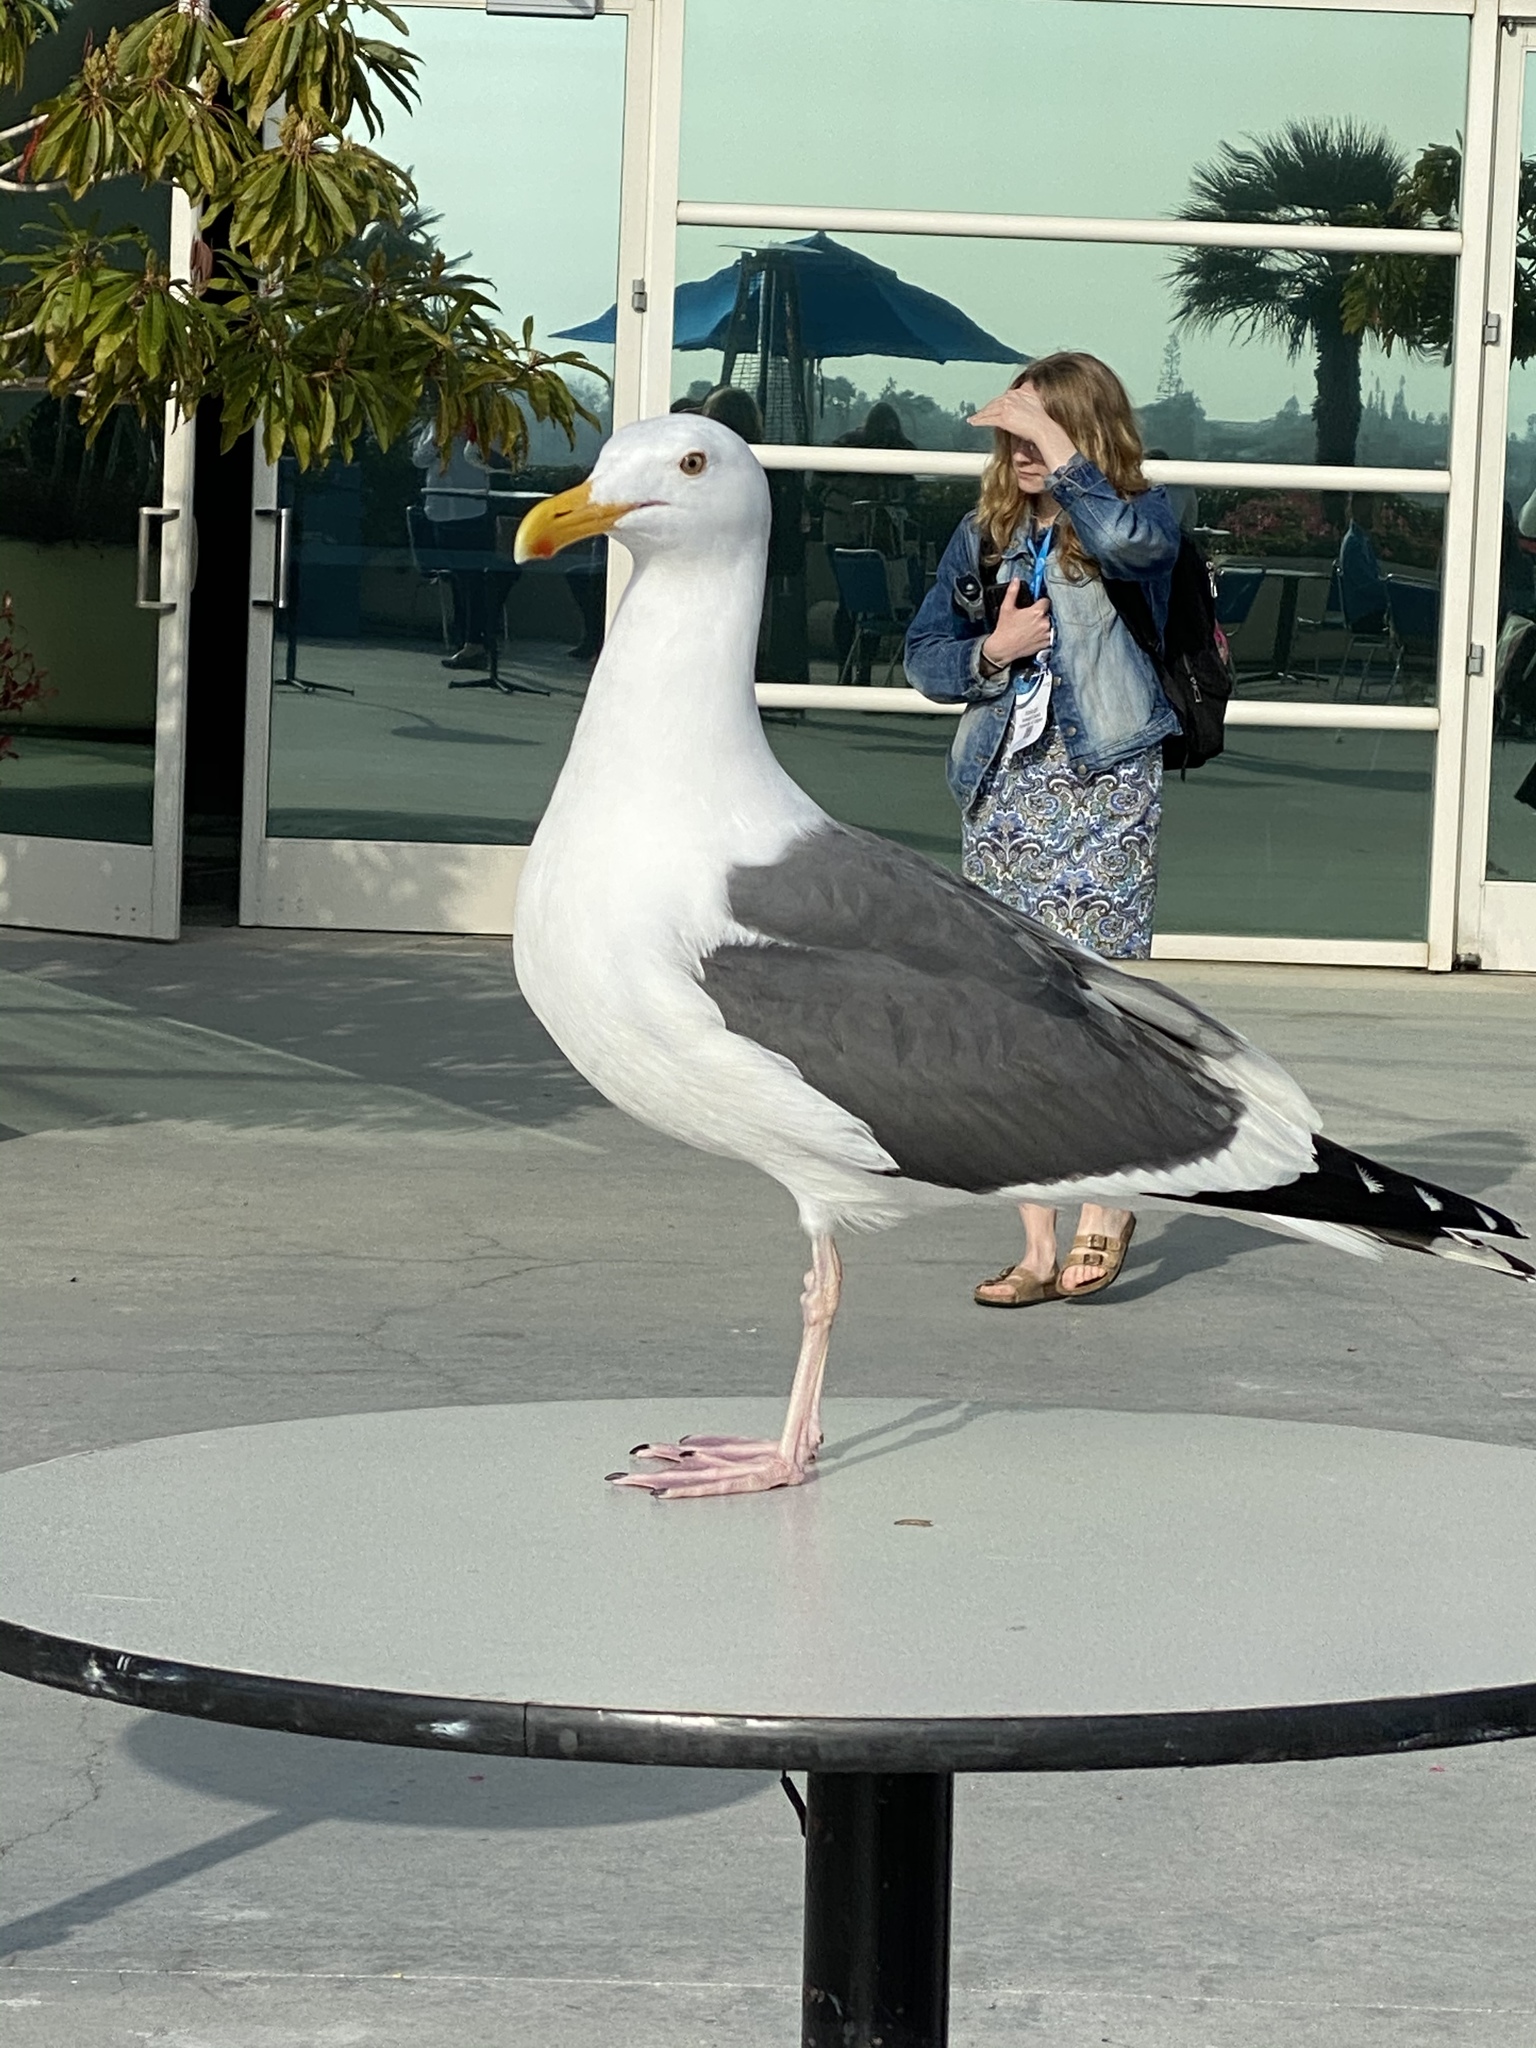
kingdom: Animalia
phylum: Chordata
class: Aves
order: Charadriiformes
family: Laridae
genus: Larus
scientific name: Larus occidentalis
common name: Western gull
